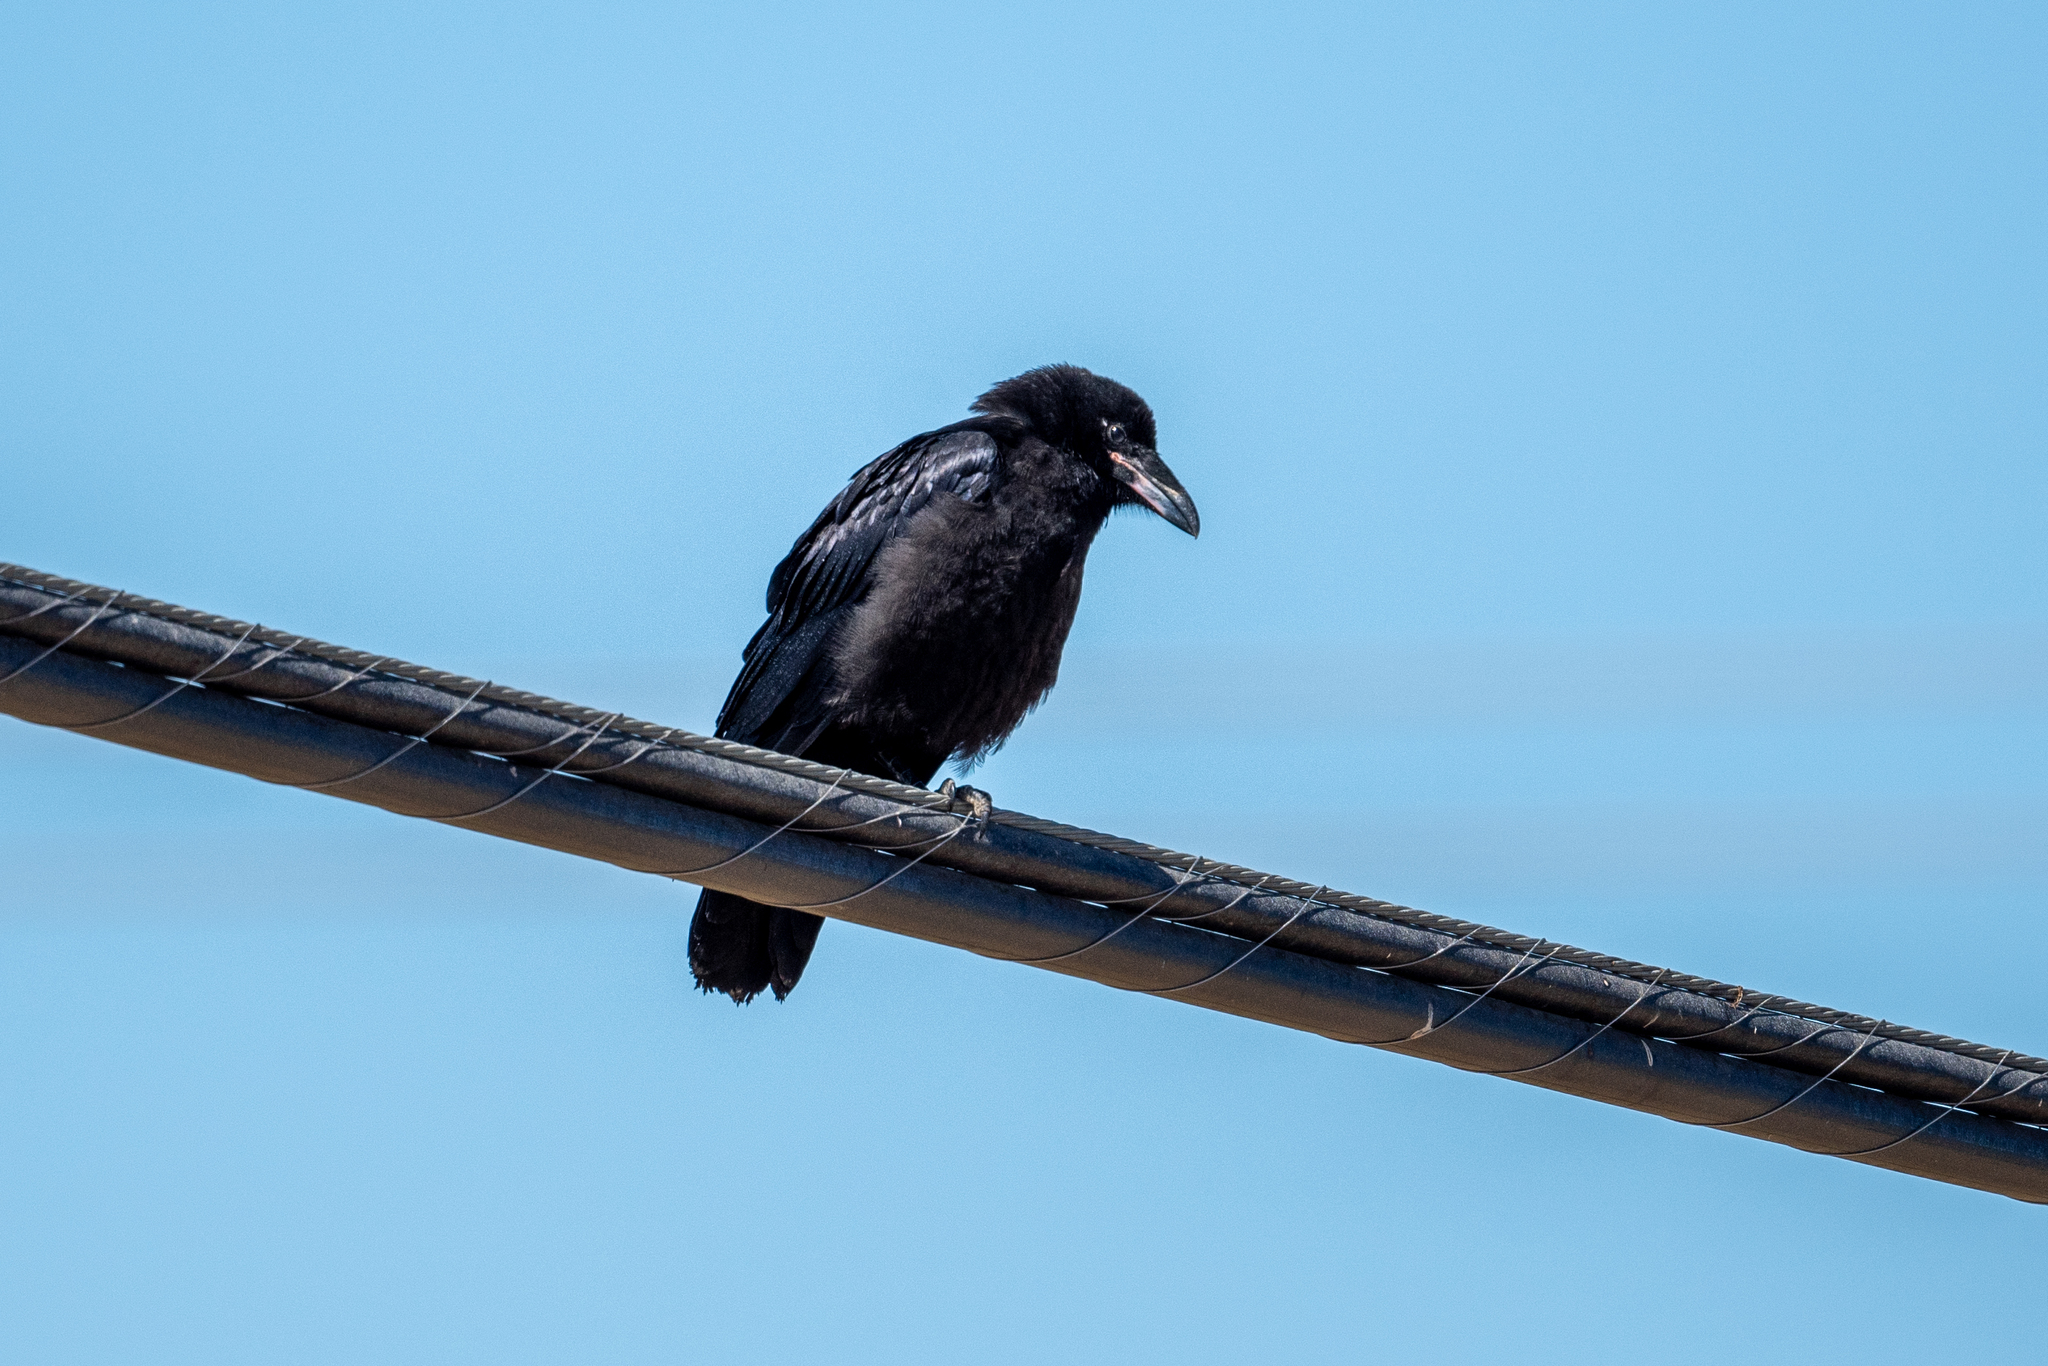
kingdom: Animalia
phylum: Chordata
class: Aves
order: Passeriformes
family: Corvidae
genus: Corvus
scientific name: Corvus corax
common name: Common raven
